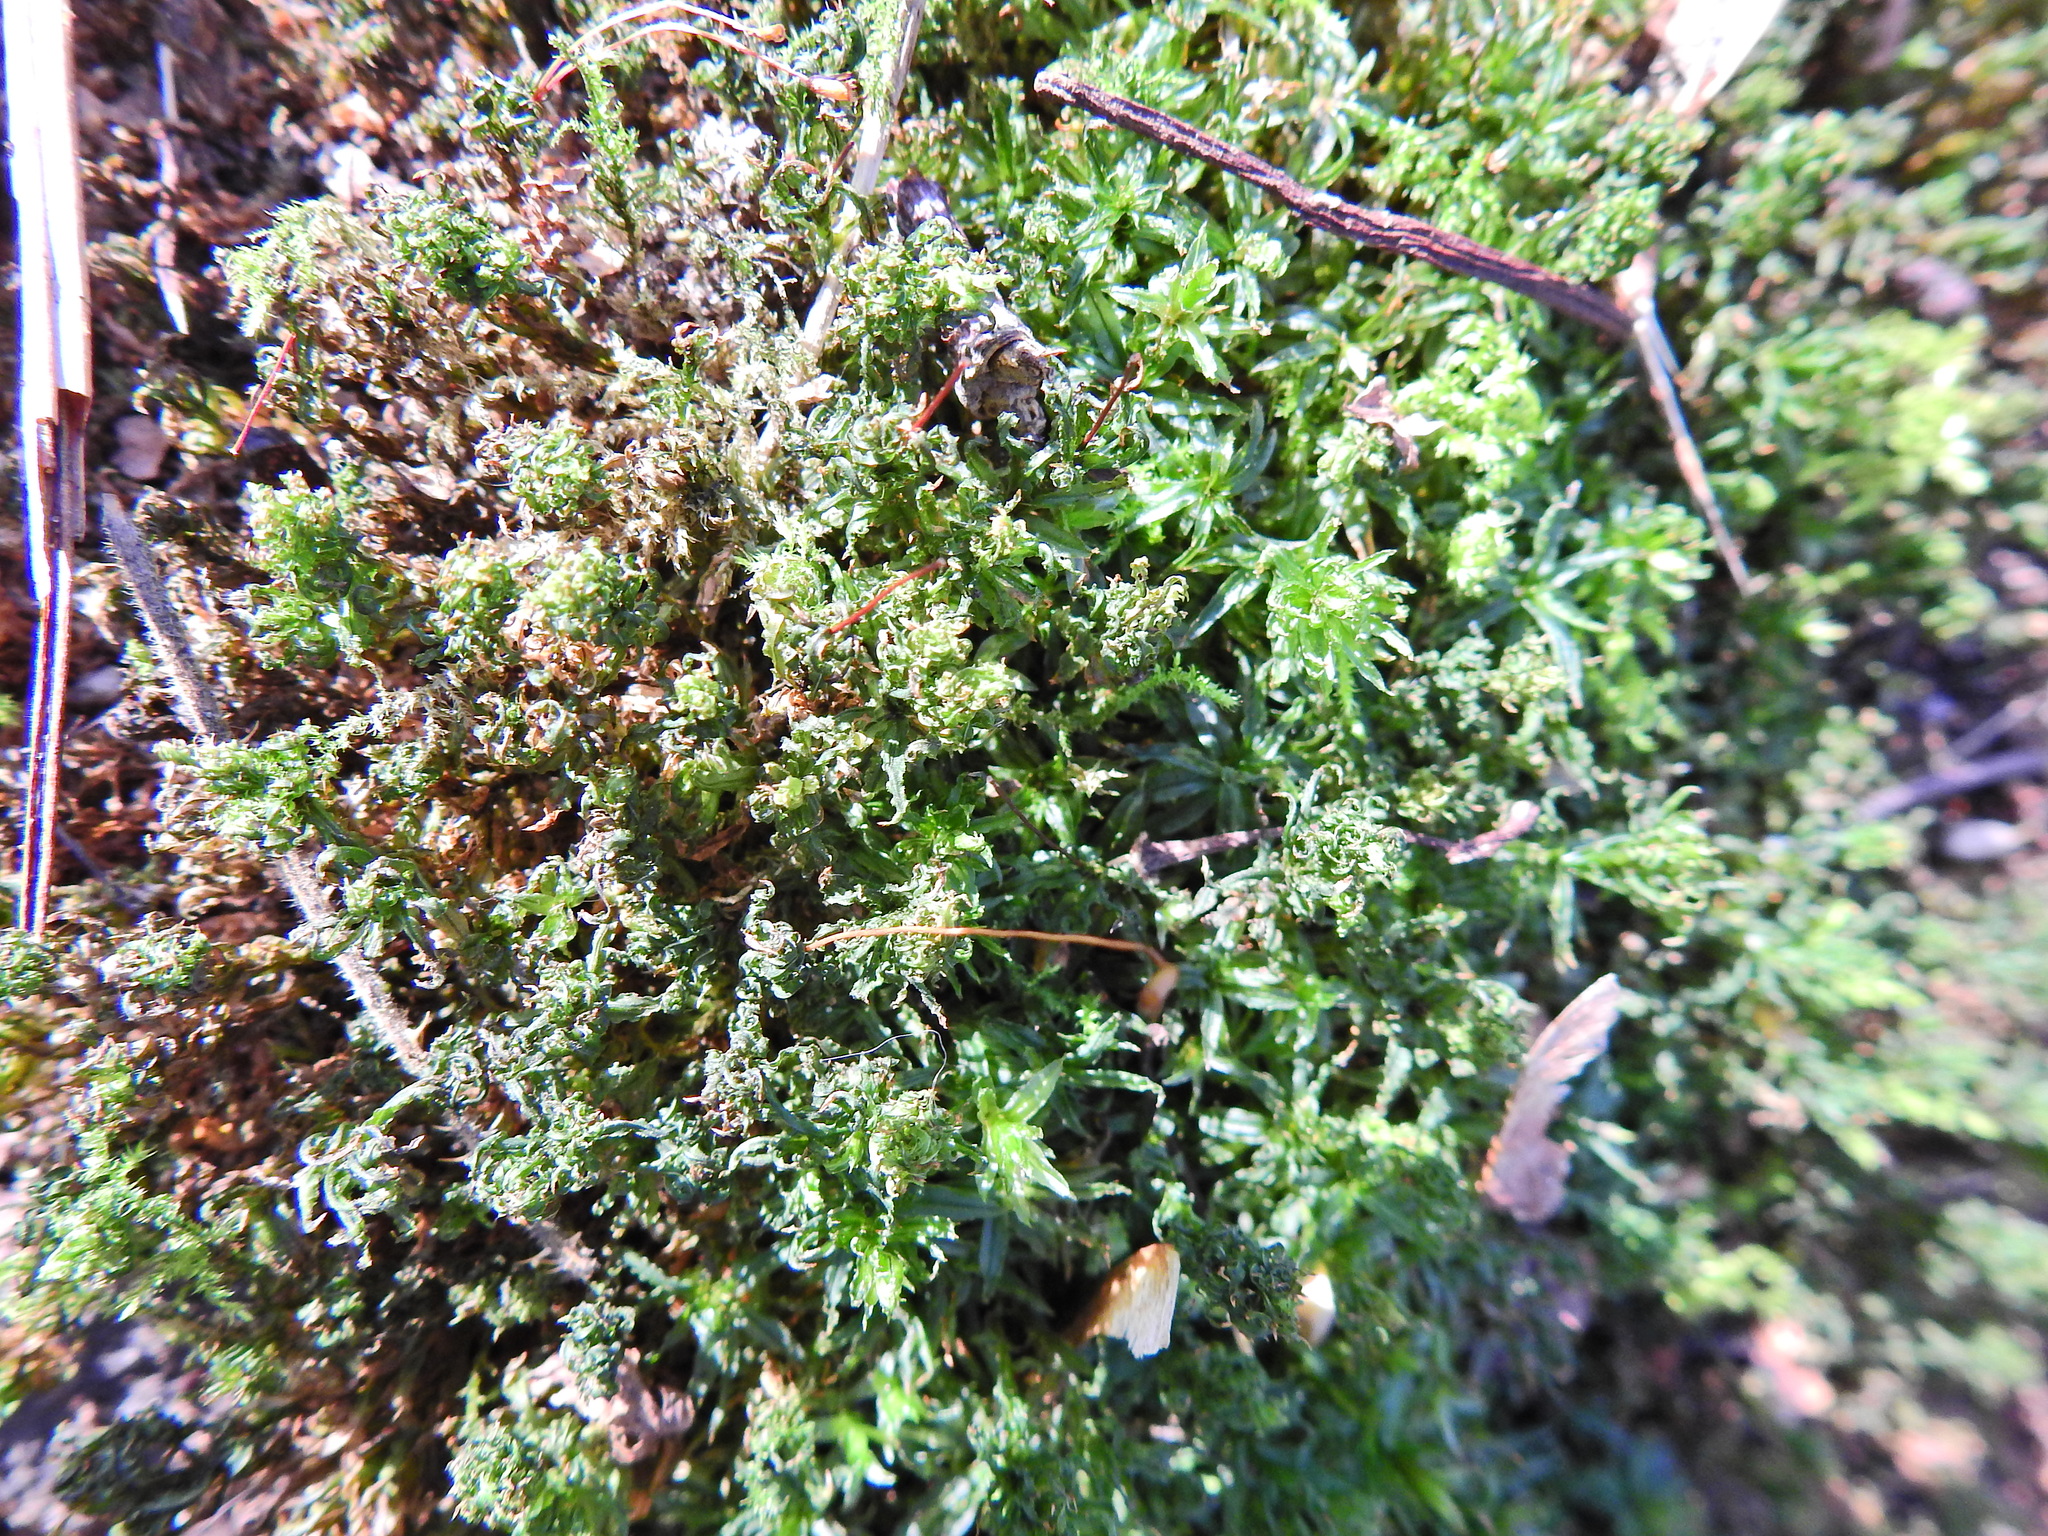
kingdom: Plantae
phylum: Bryophyta
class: Polytrichopsida
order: Polytrichales
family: Polytrichaceae
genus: Atrichum
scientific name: Atrichum undulatum
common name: Common smoothcap
